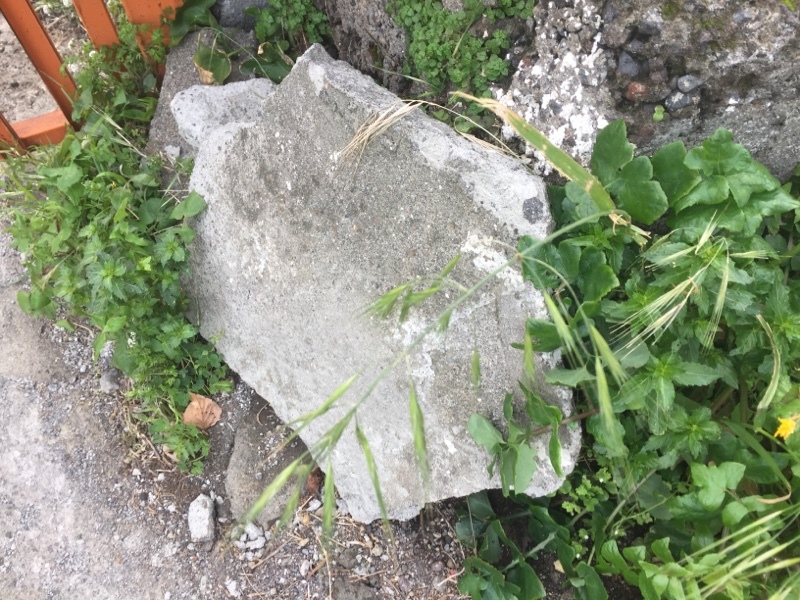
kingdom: Plantae
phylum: Tracheophyta
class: Liliopsida
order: Poales
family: Poaceae
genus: Bromus
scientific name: Bromus sterilis
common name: Poverty brome
